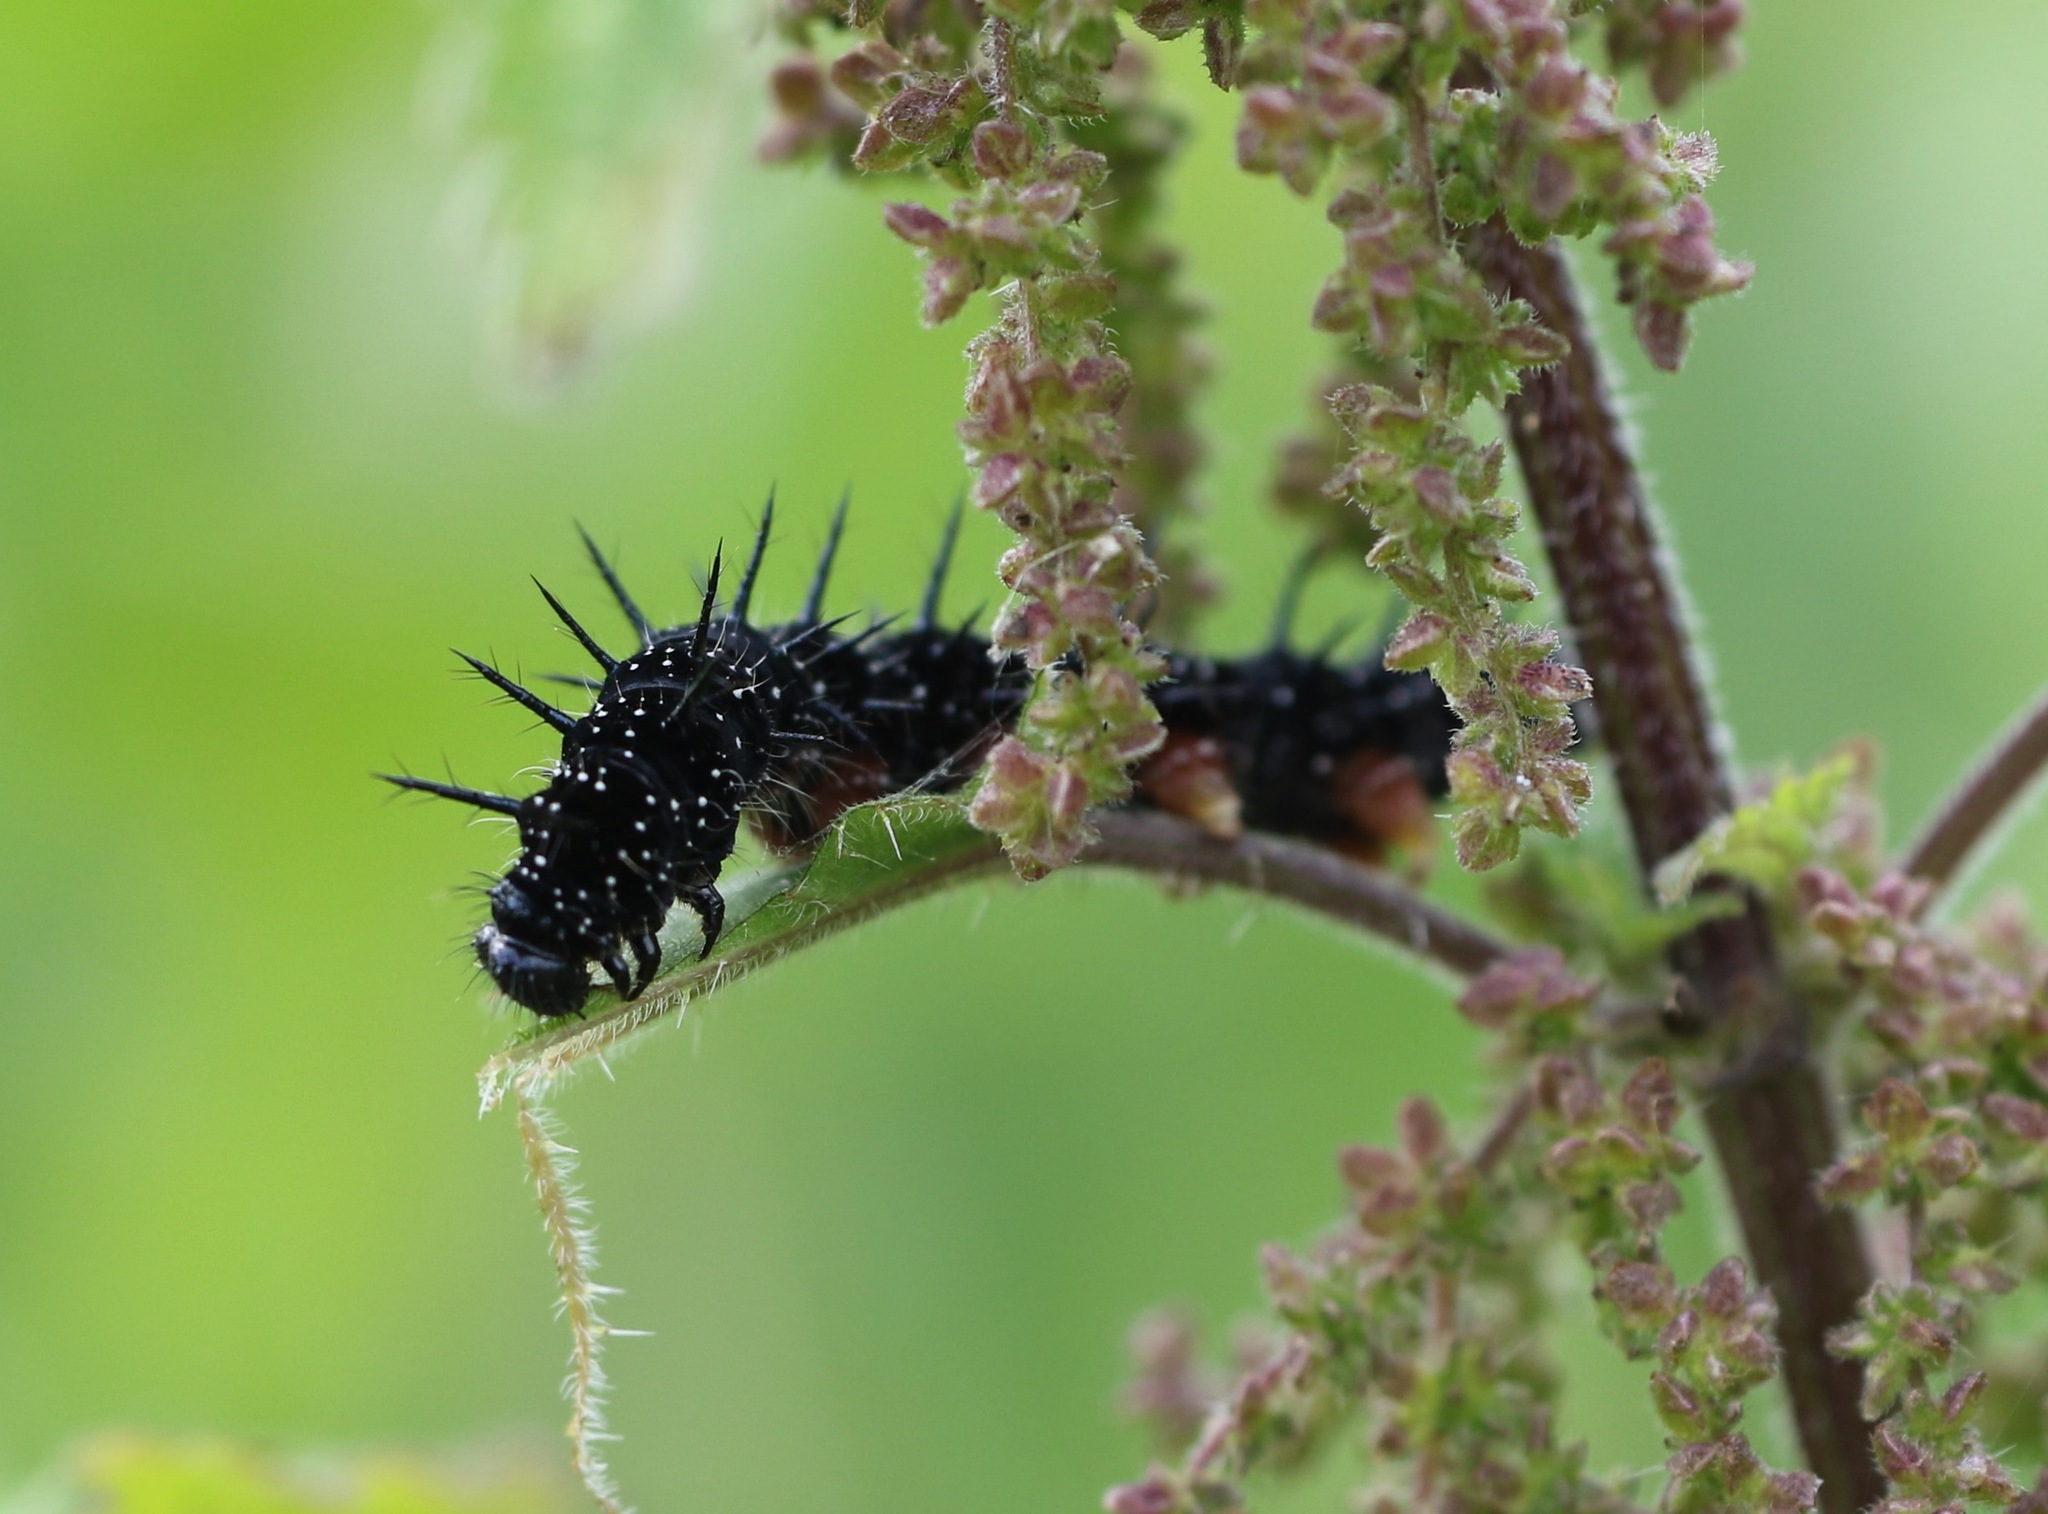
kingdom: Animalia
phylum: Arthropoda
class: Insecta
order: Lepidoptera
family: Nymphalidae
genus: Aglais
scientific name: Aglais io
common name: Peacock
